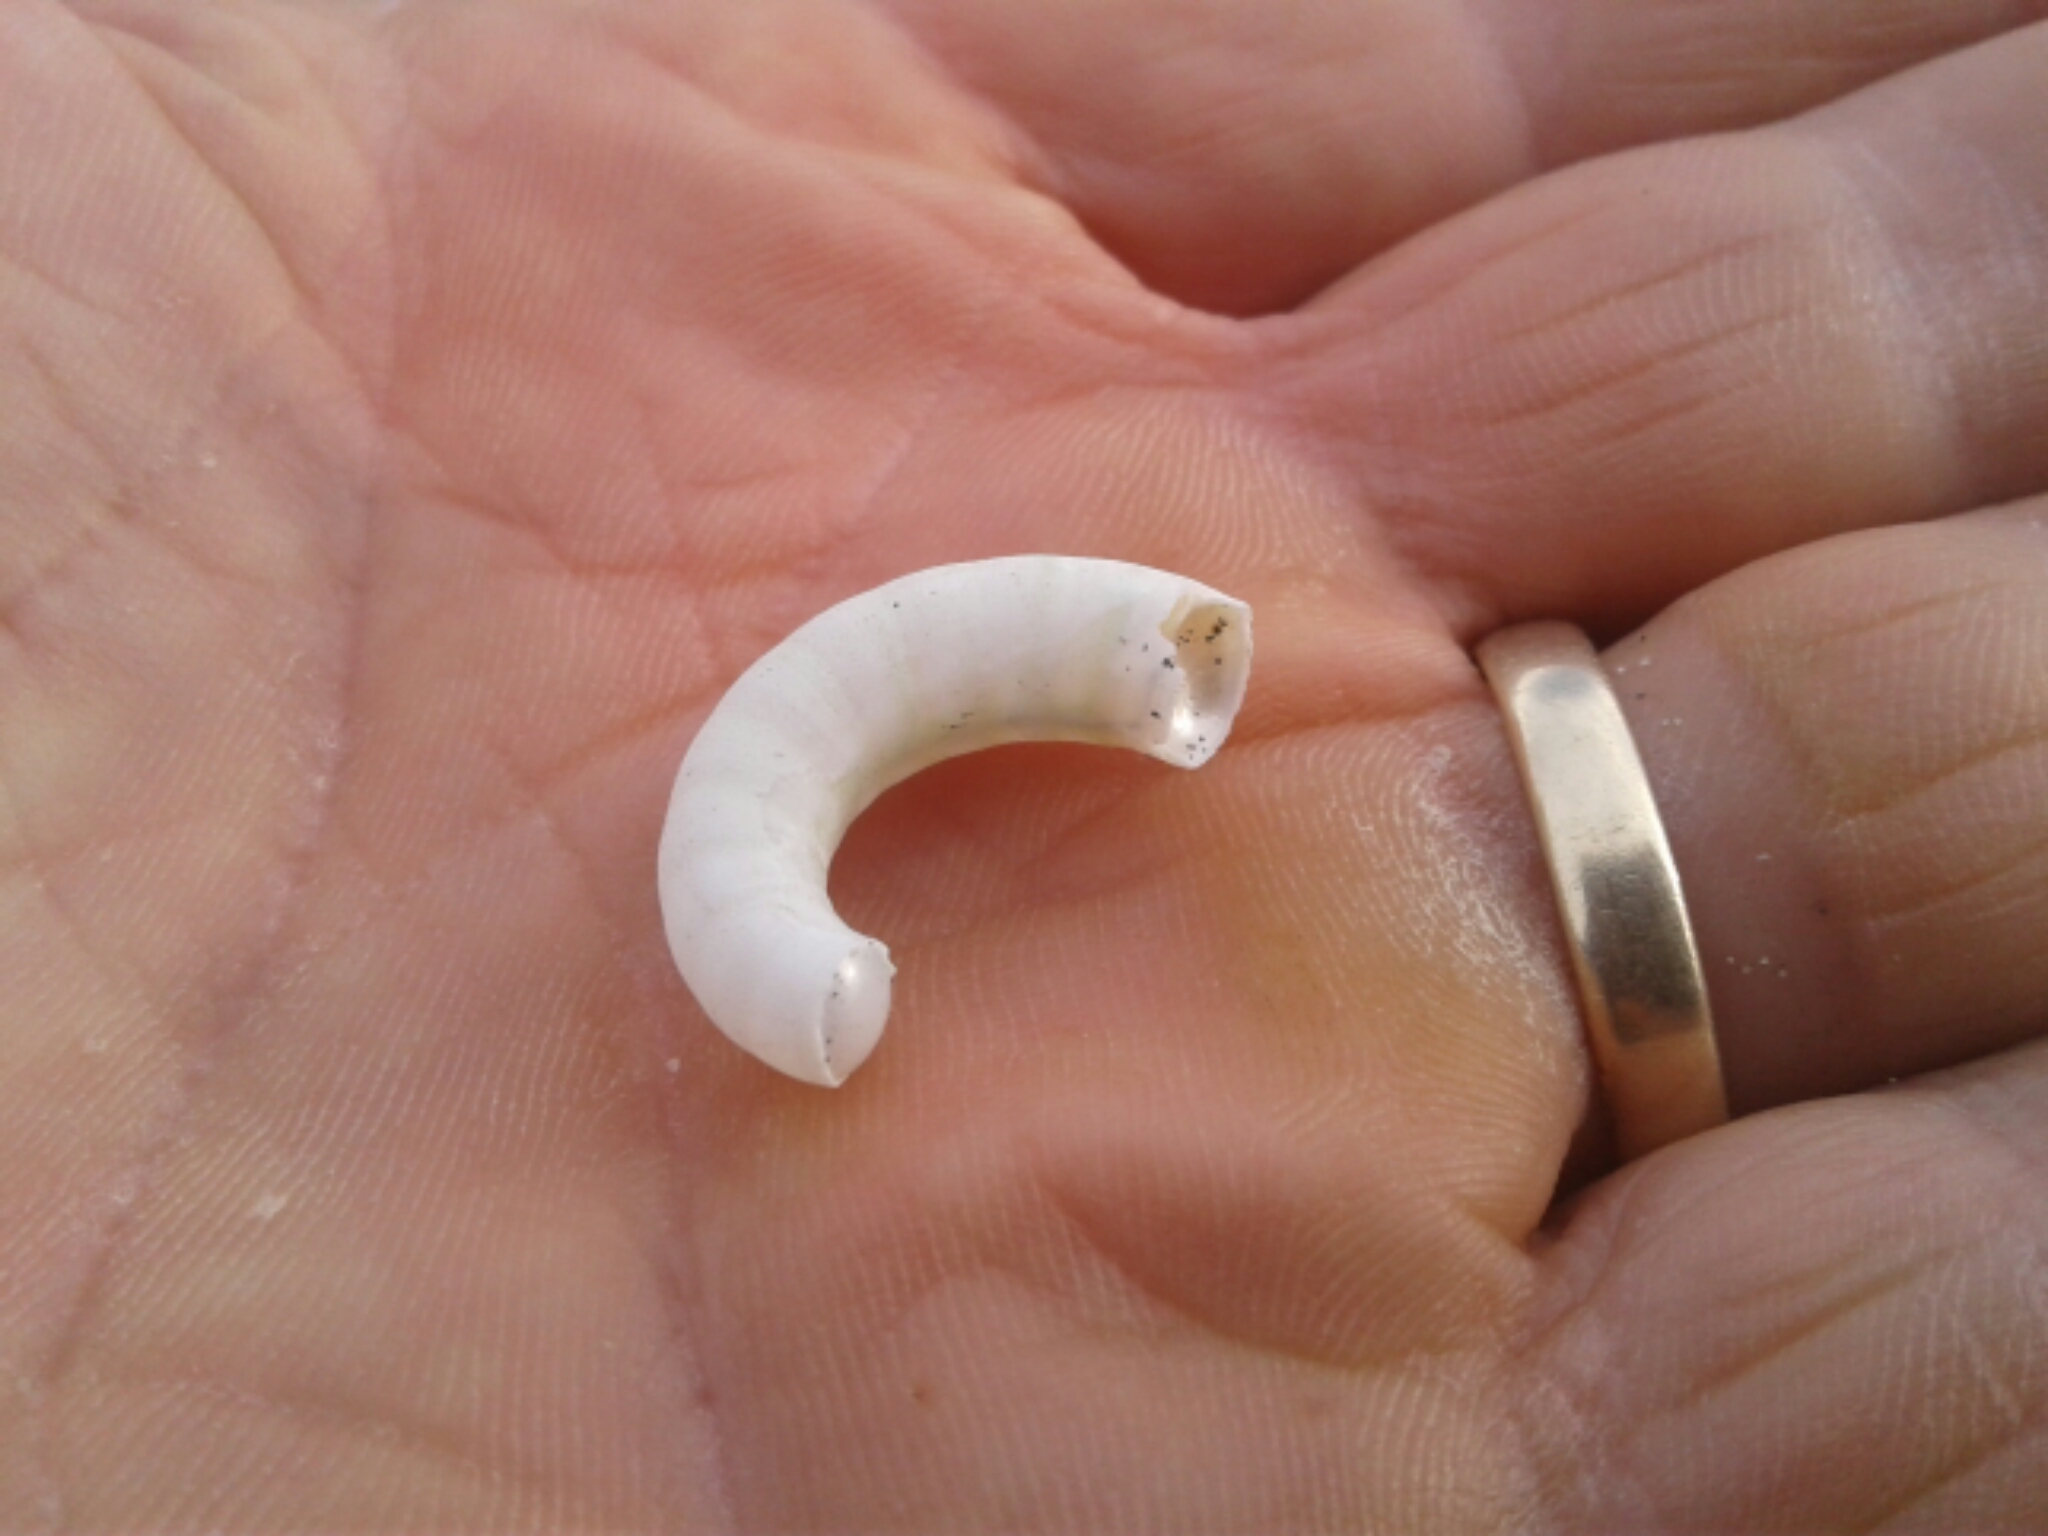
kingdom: Animalia
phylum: Mollusca
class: Cephalopoda
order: Spirulida
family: Spirulidae
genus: Spirula
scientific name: Spirula spirula
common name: Ram's horn squid
